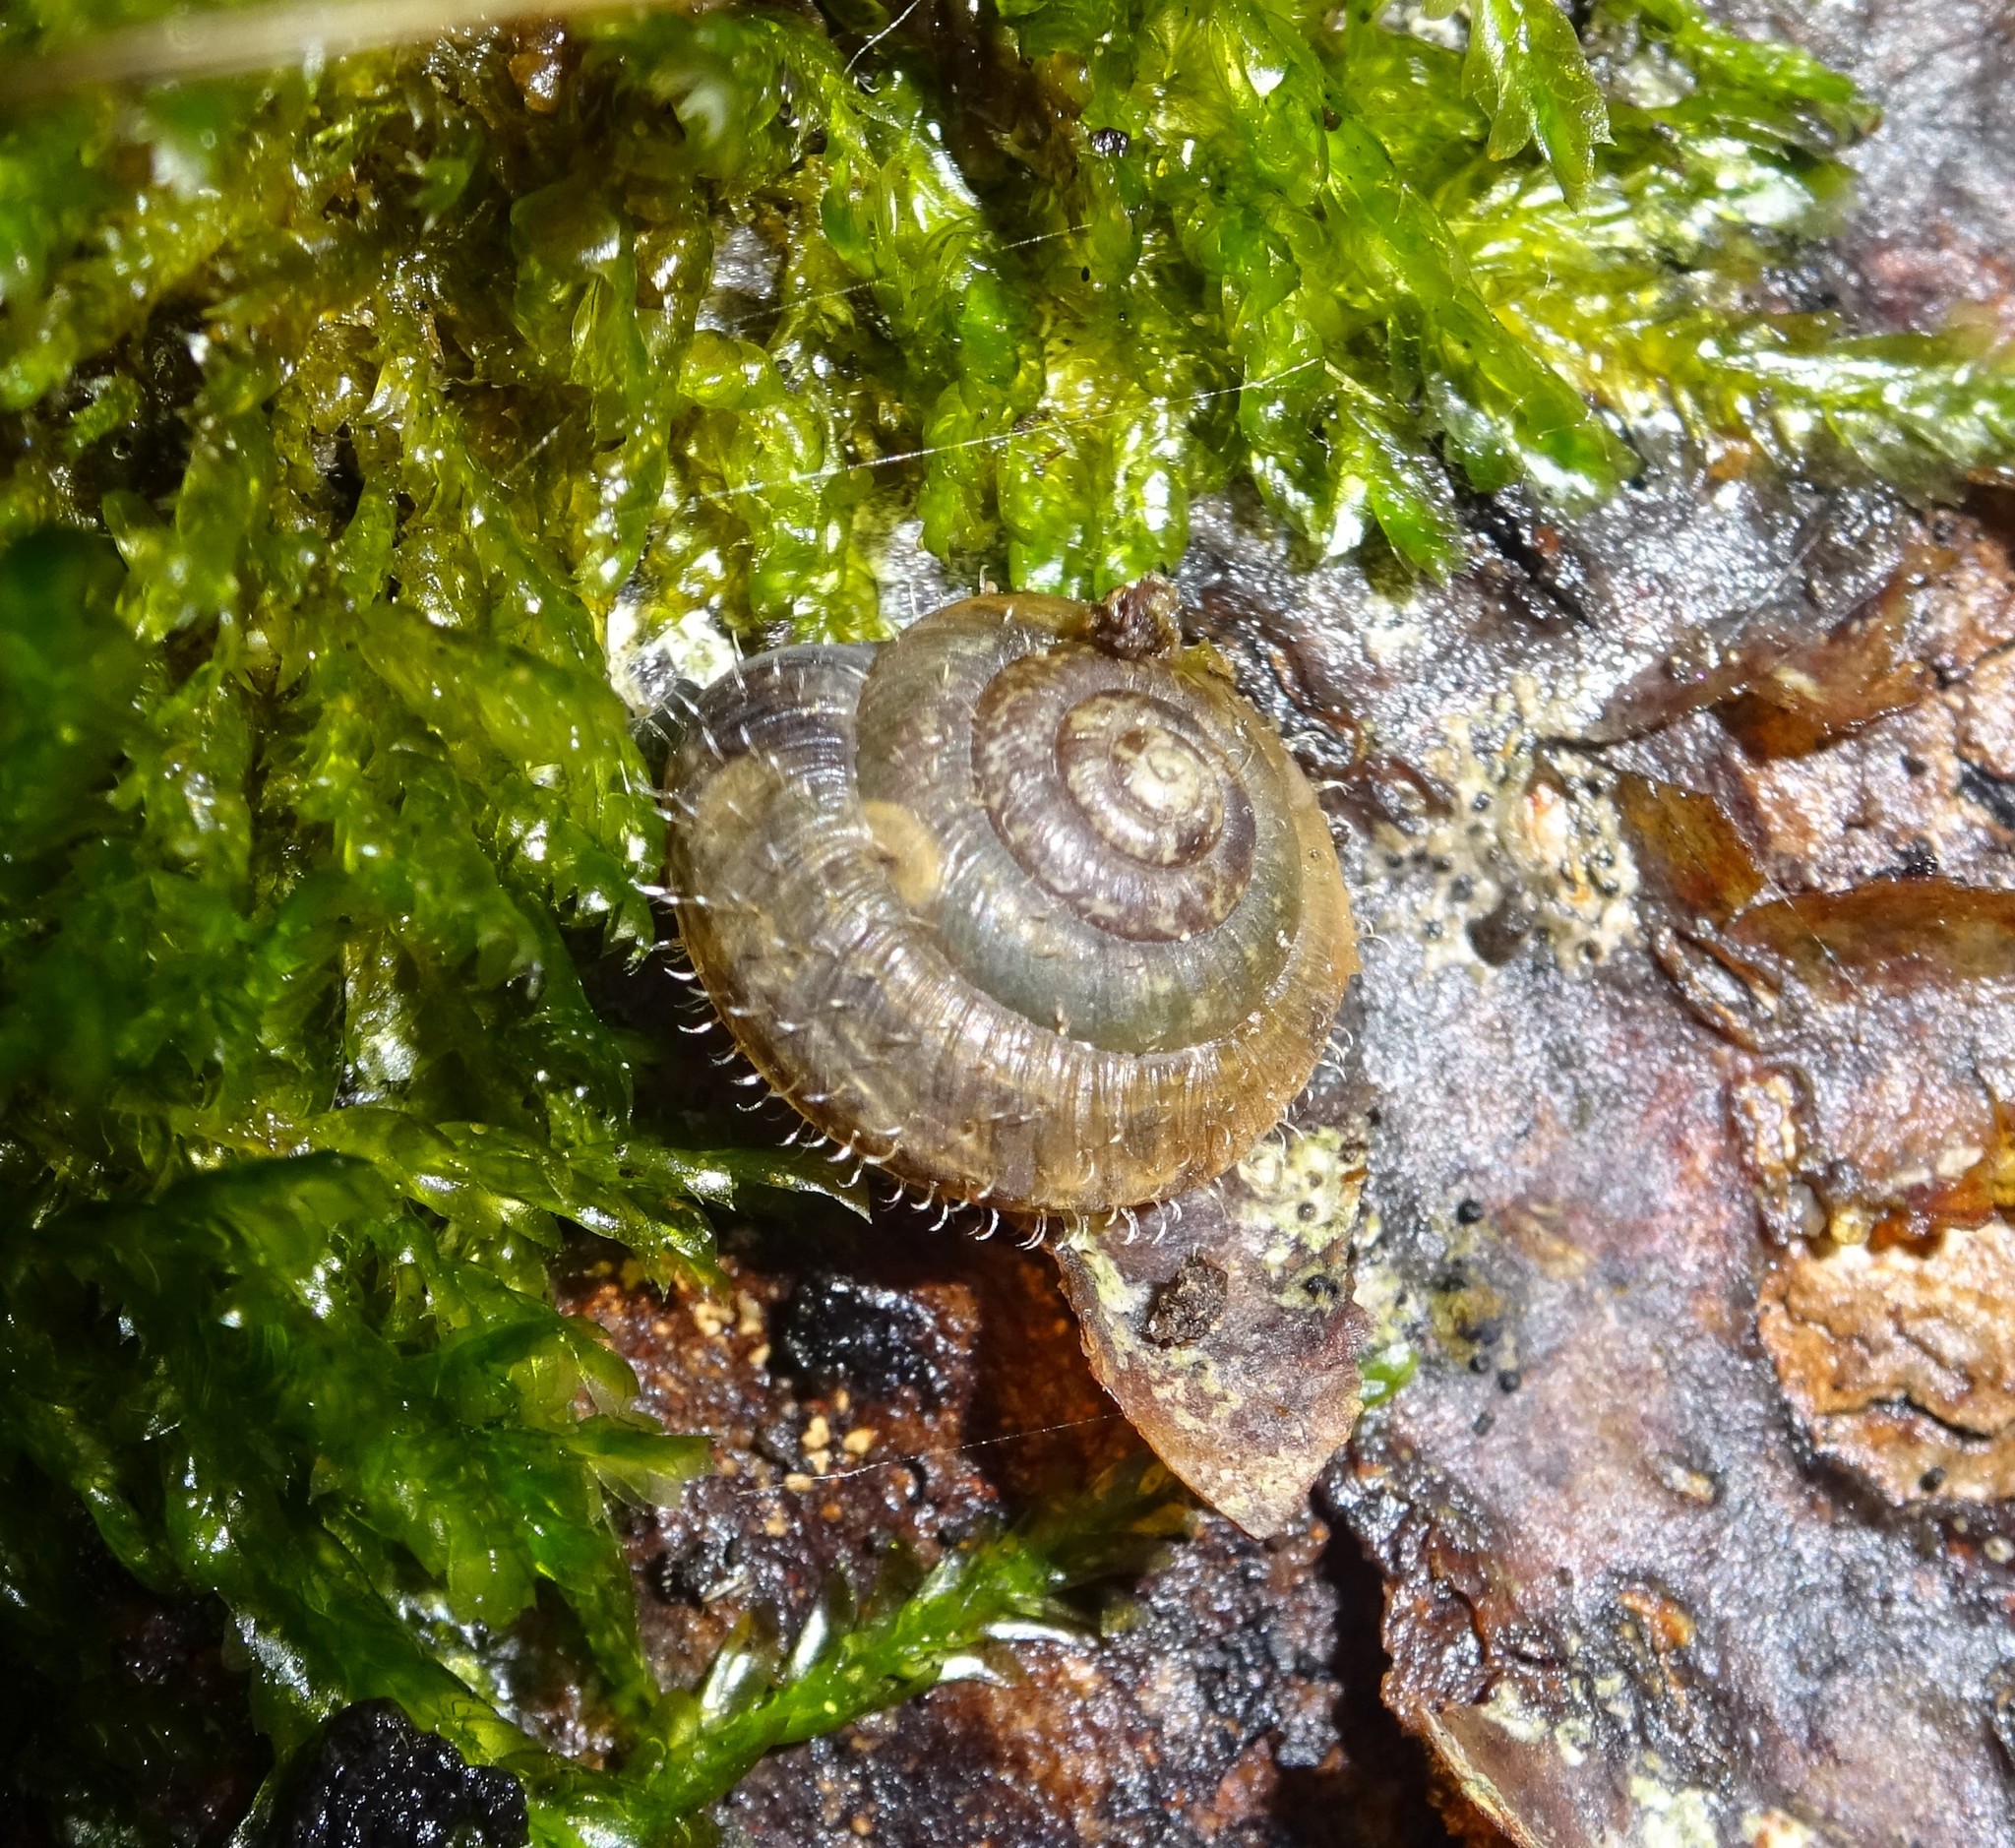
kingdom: Animalia
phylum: Mollusca
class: Gastropoda
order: Stylommatophora
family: Hygromiidae
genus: Trochulus
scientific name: Trochulus phorochaetia
